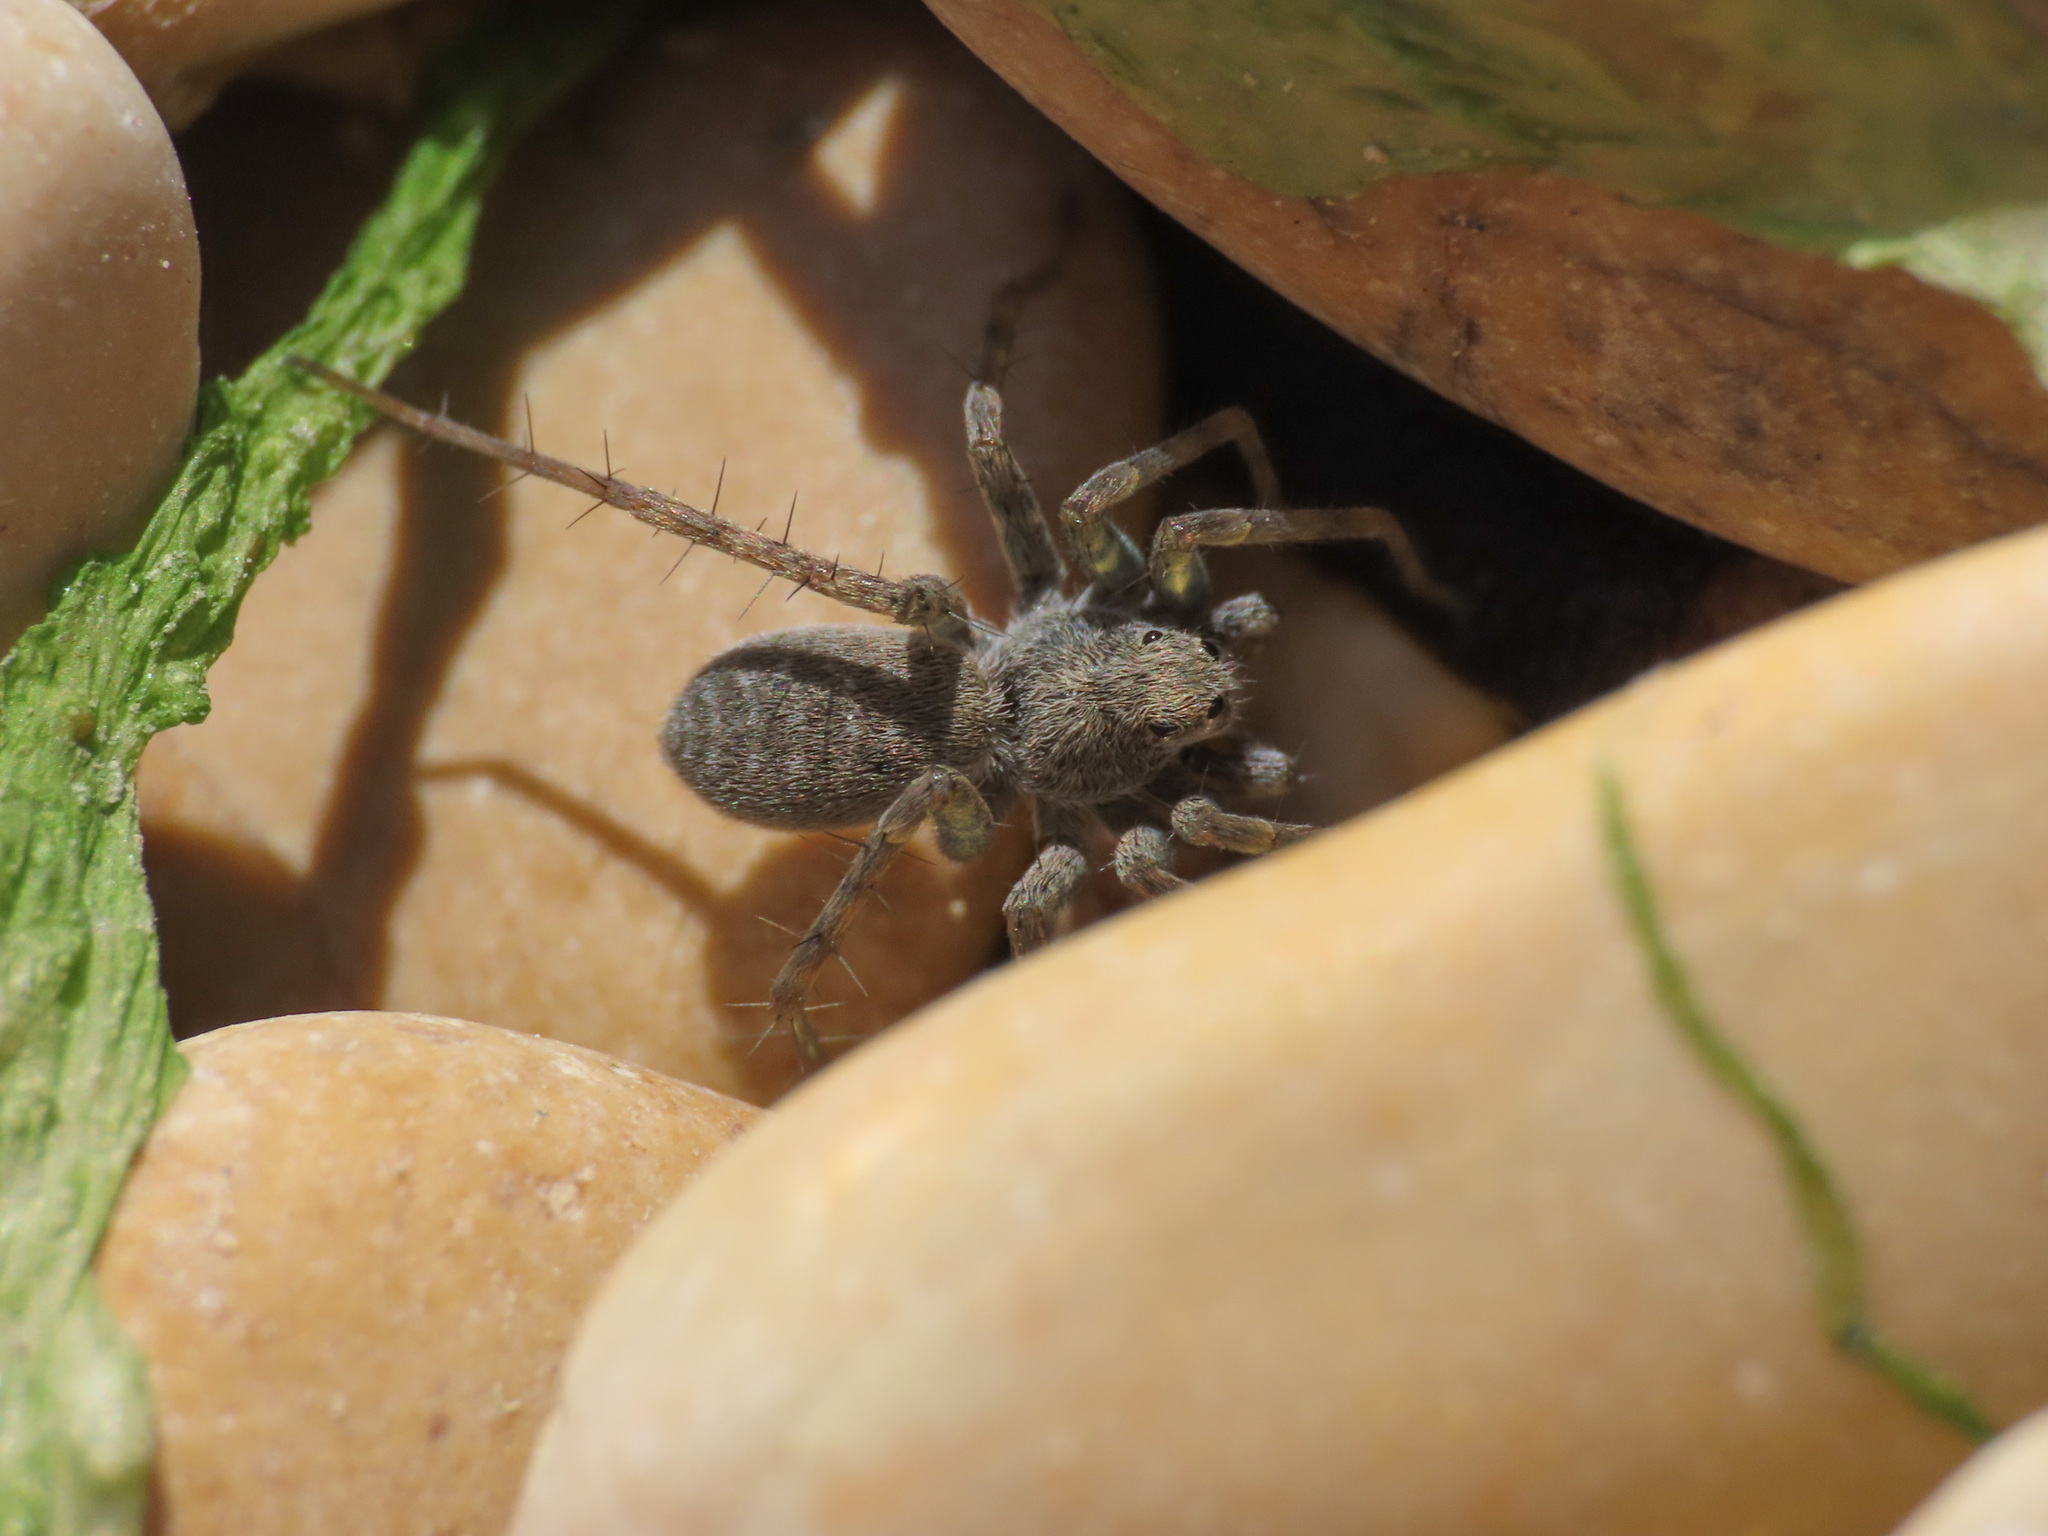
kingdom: Animalia
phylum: Arthropoda
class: Arachnida
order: Araneae
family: Lycosidae
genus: Pardosa
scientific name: Pardosa wagleri
